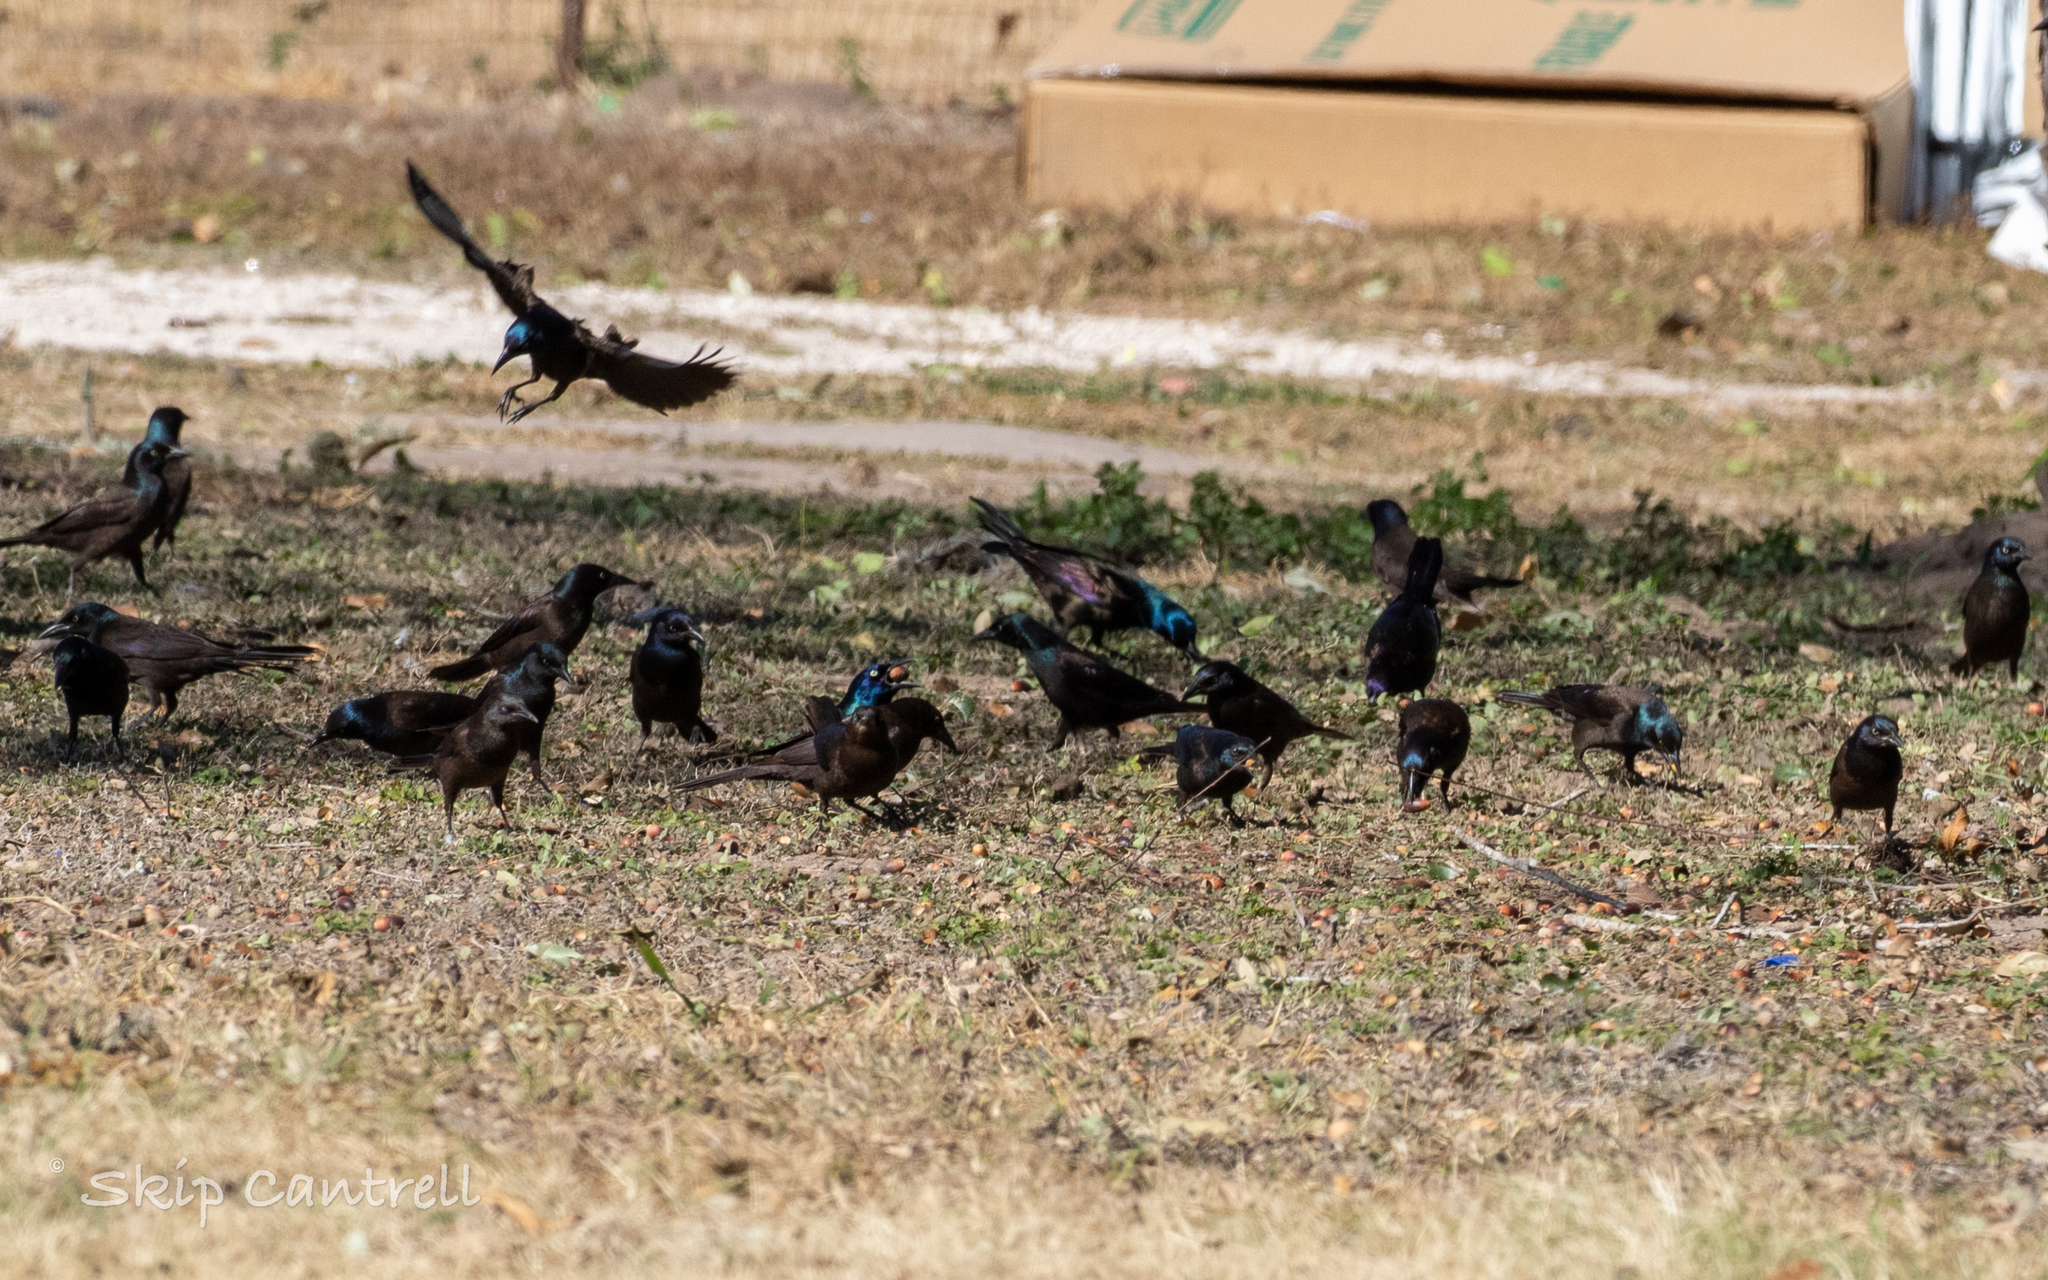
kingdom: Animalia
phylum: Chordata
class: Aves
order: Passeriformes
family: Icteridae
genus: Quiscalus
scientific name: Quiscalus quiscula
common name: Common grackle
